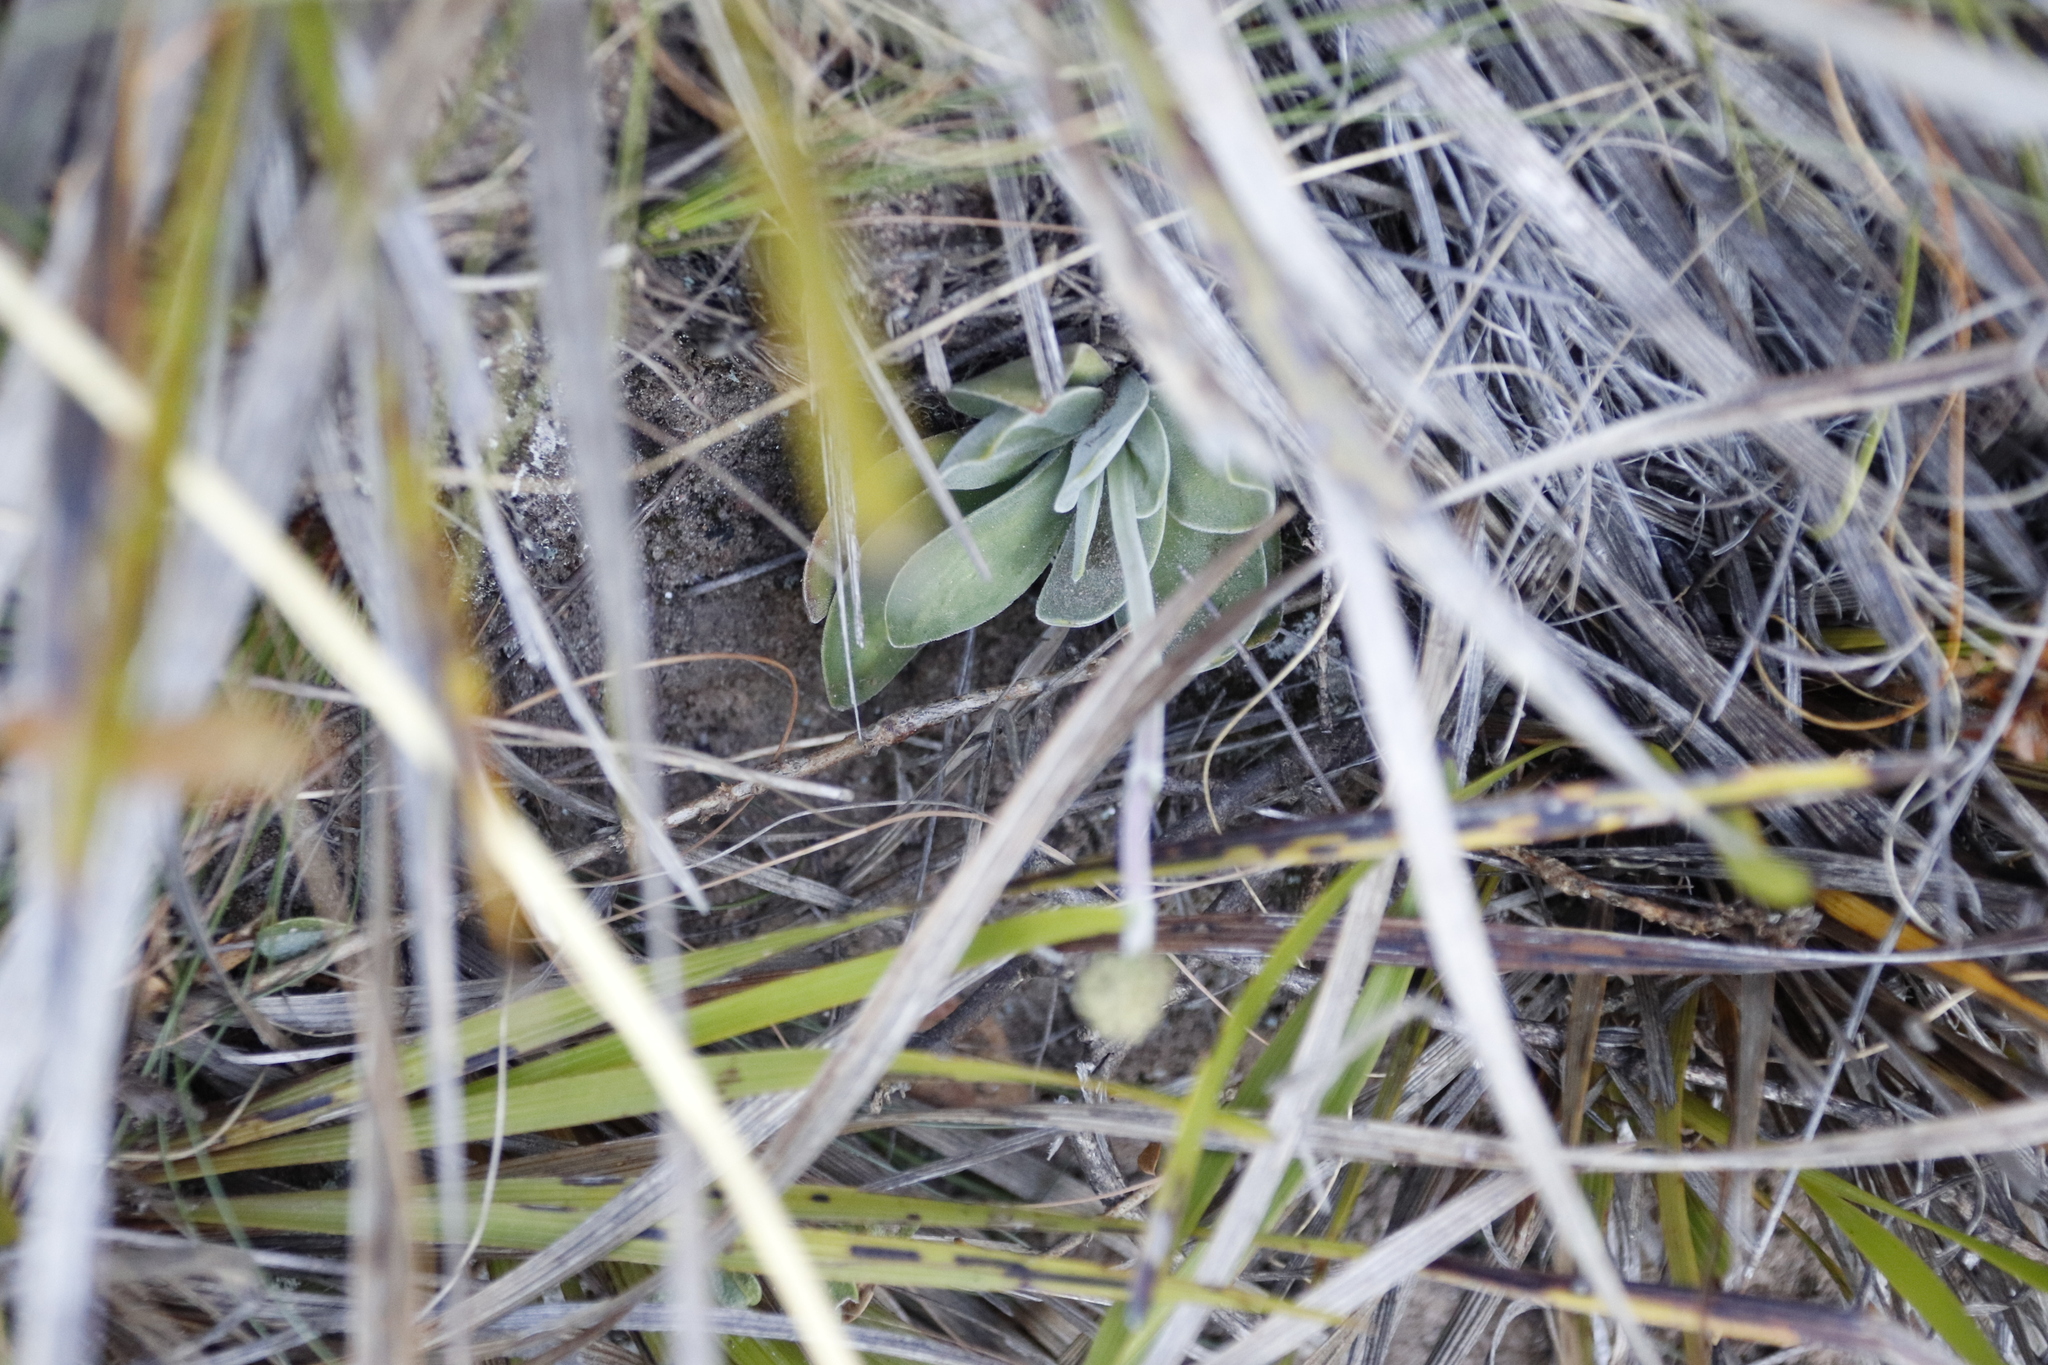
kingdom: Plantae
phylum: Tracheophyta
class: Magnoliopsida
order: Saxifragales
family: Crassulaceae
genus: Crassula
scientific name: Crassula nudicaulis
